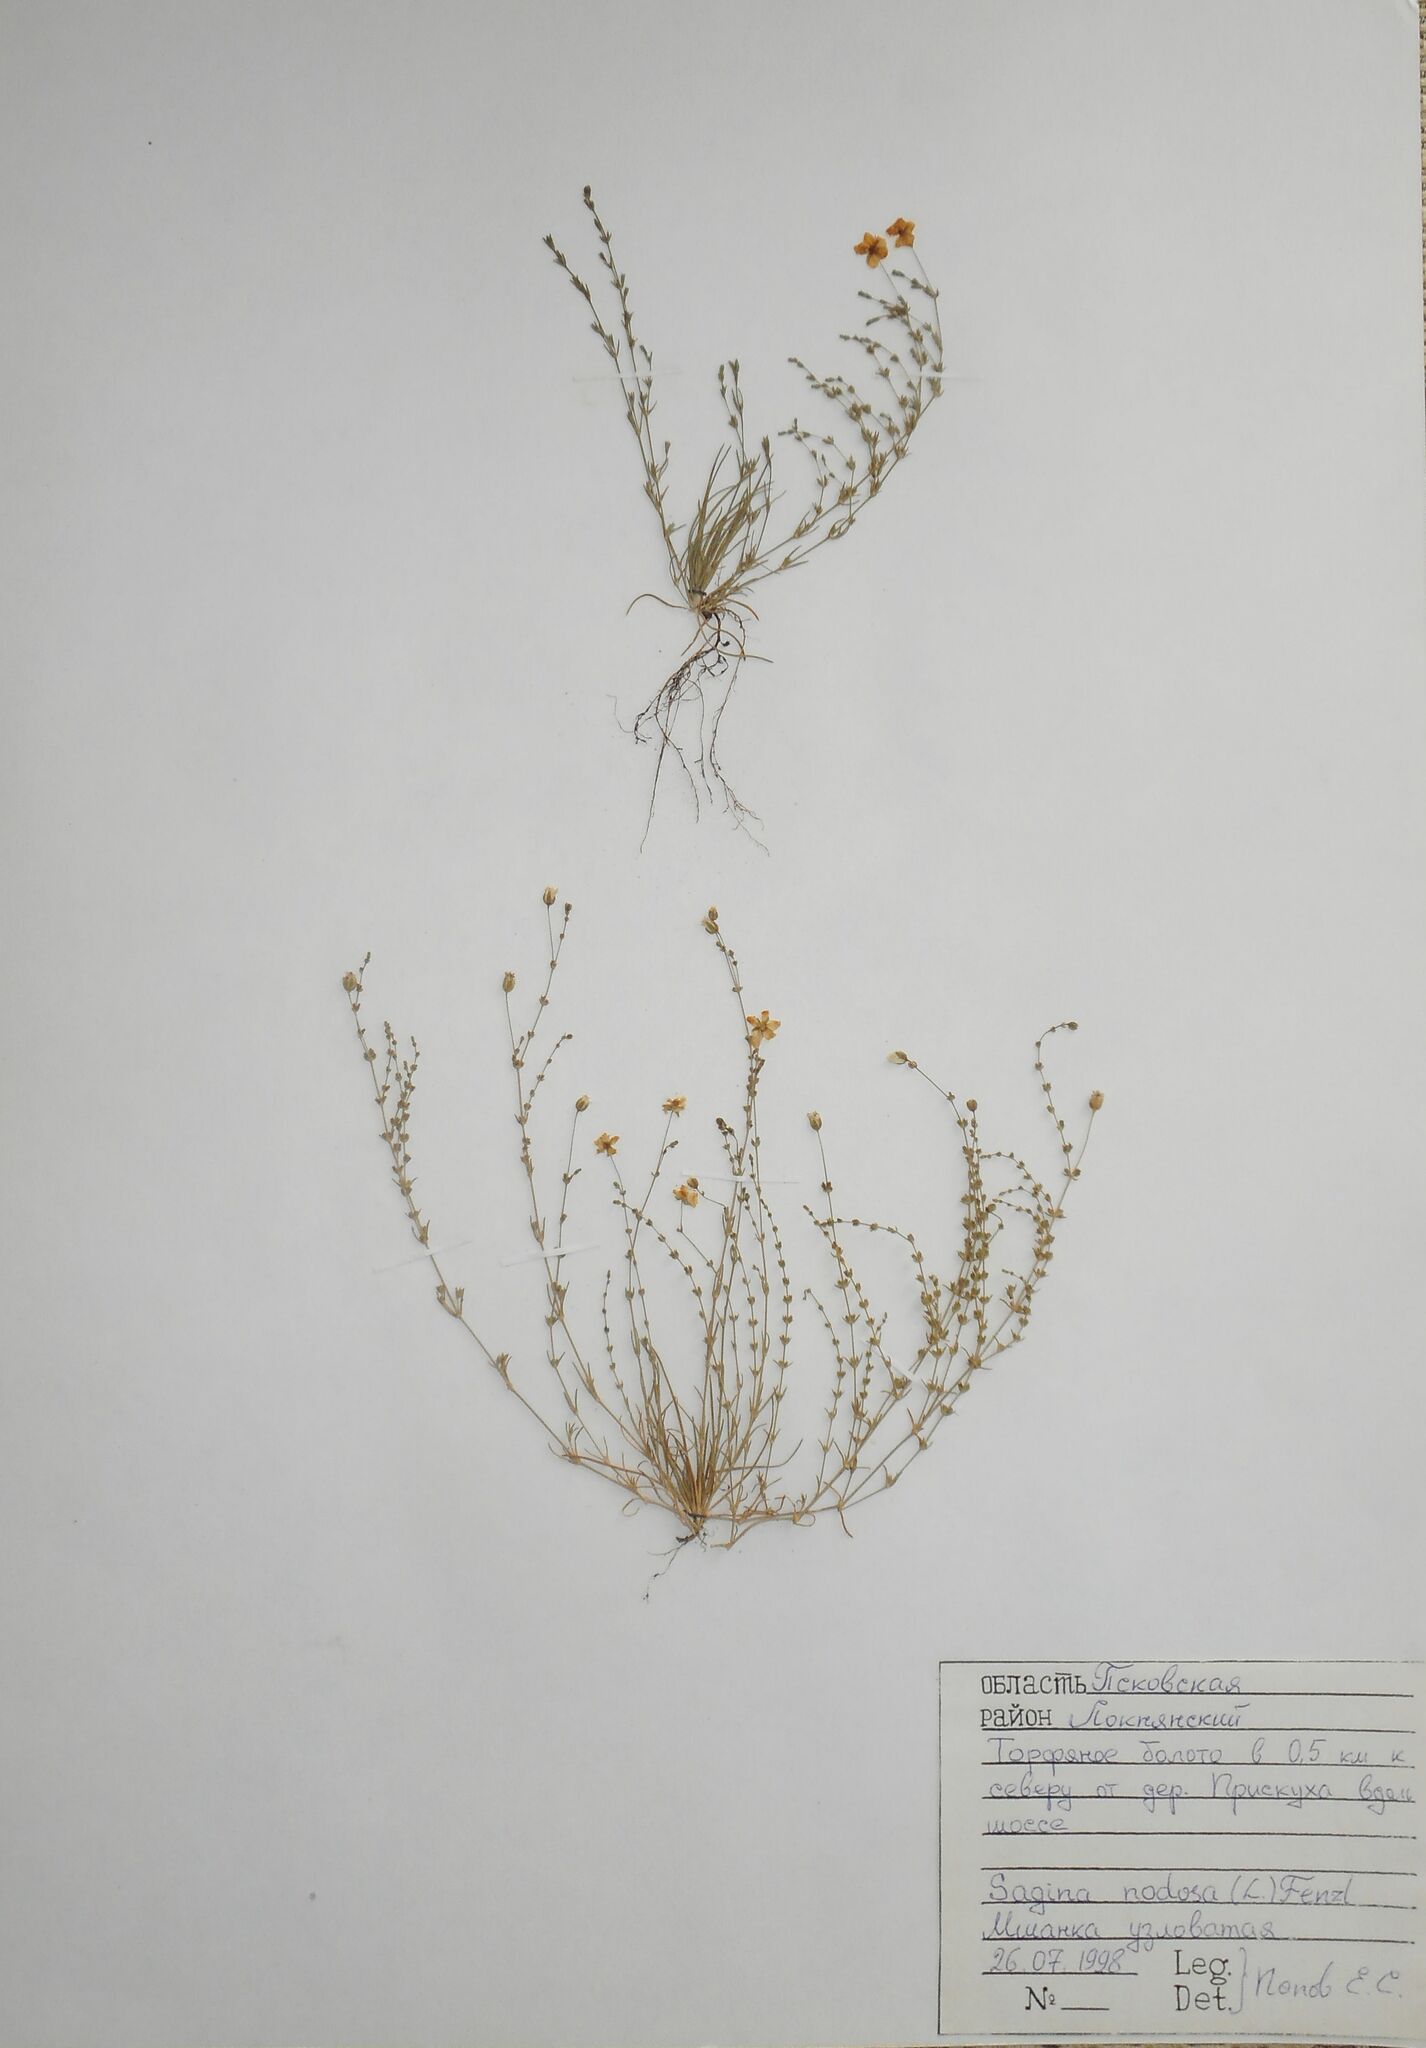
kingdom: Plantae
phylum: Tracheophyta
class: Magnoliopsida
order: Caryophyllales
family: Caryophyllaceae
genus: Sagina
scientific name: Sagina nodosa
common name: Knotted pearlwort
